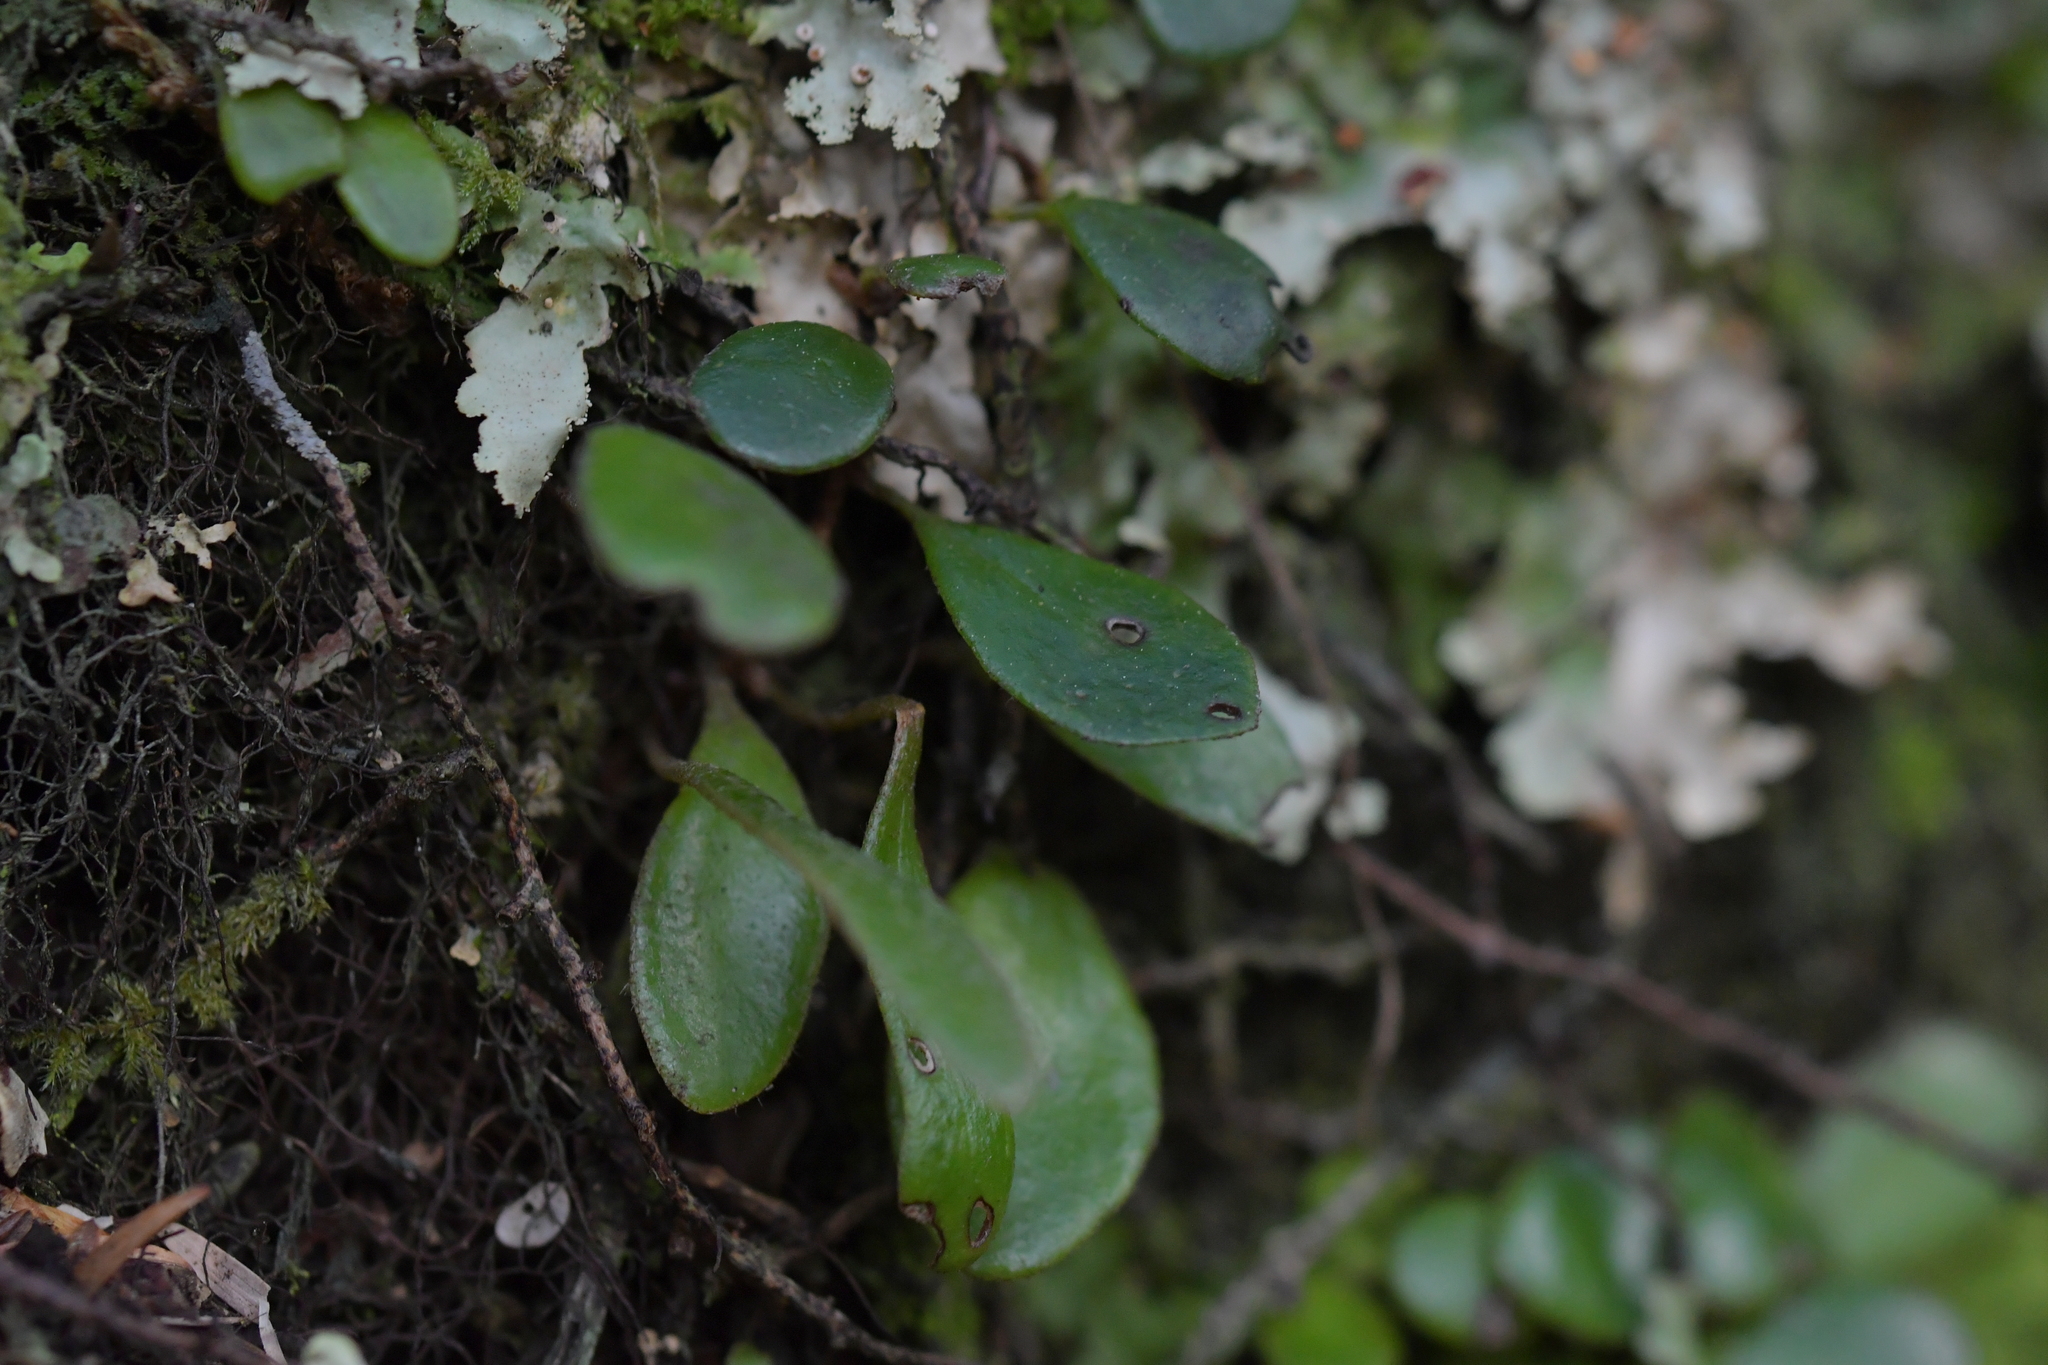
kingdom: Plantae
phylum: Tracheophyta
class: Polypodiopsida
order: Polypodiales
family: Polypodiaceae
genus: Pyrrosia
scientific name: Pyrrosia eleagnifolia
